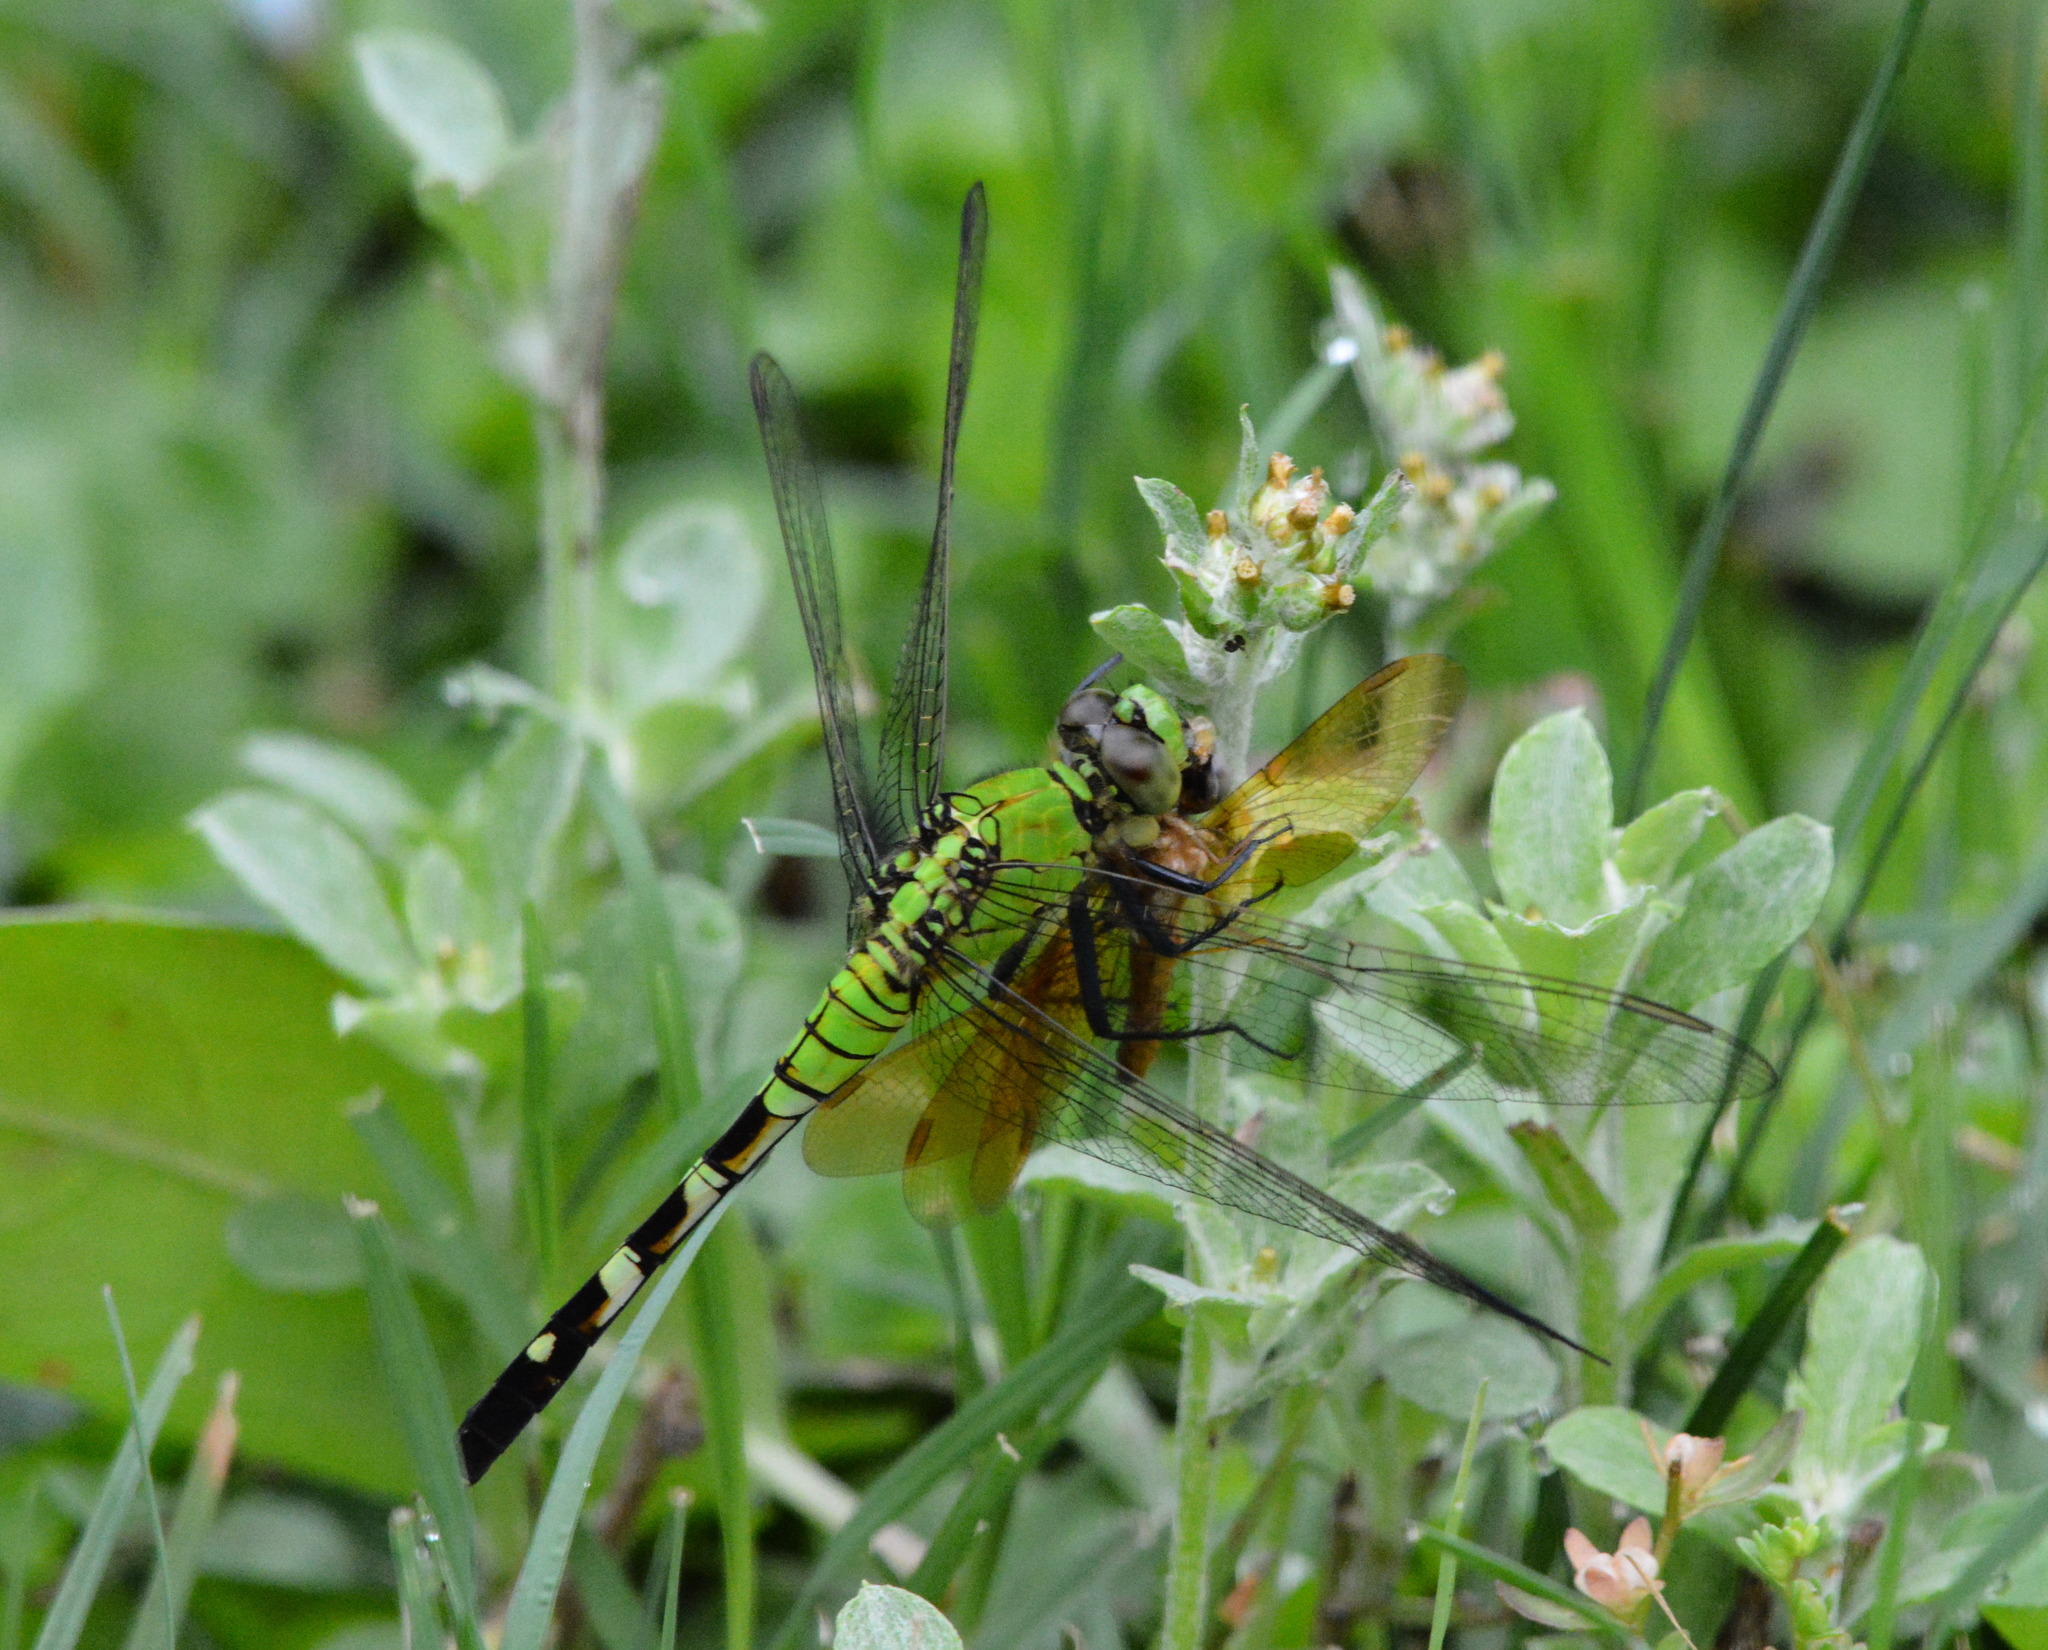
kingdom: Animalia
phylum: Arthropoda
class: Insecta
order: Odonata
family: Libellulidae
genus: Erythemis
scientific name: Erythemis simplicicollis
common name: Eastern pondhawk
